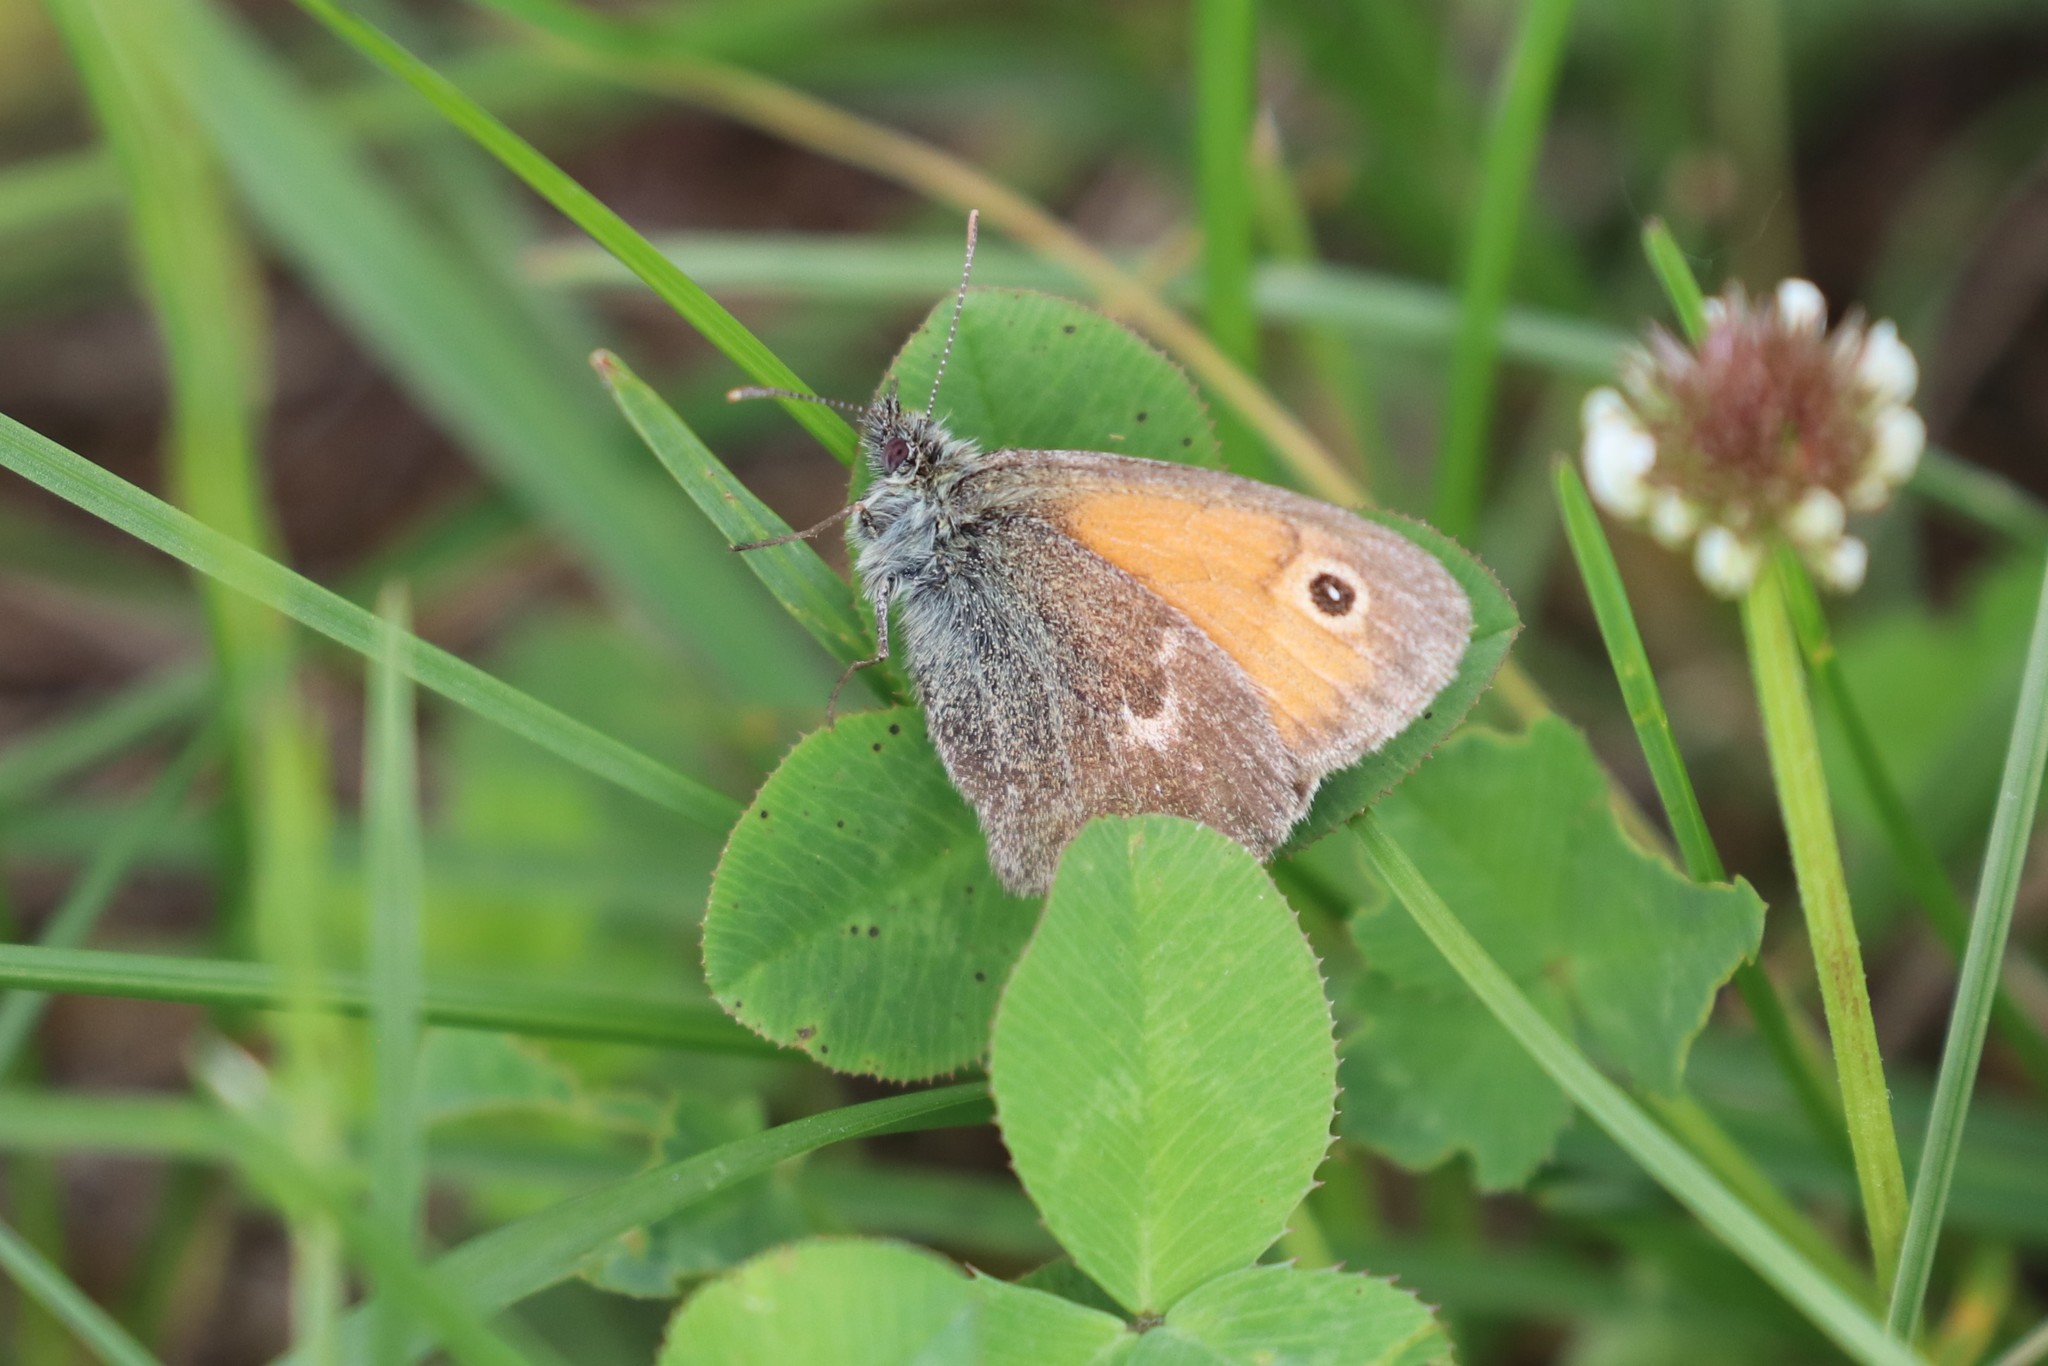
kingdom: Animalia
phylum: Arthropoda
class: Insecta
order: Lepidoptera
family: Nymphalidae
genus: Coenonympha
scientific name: Coenonympha pamphilus
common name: Small heath
